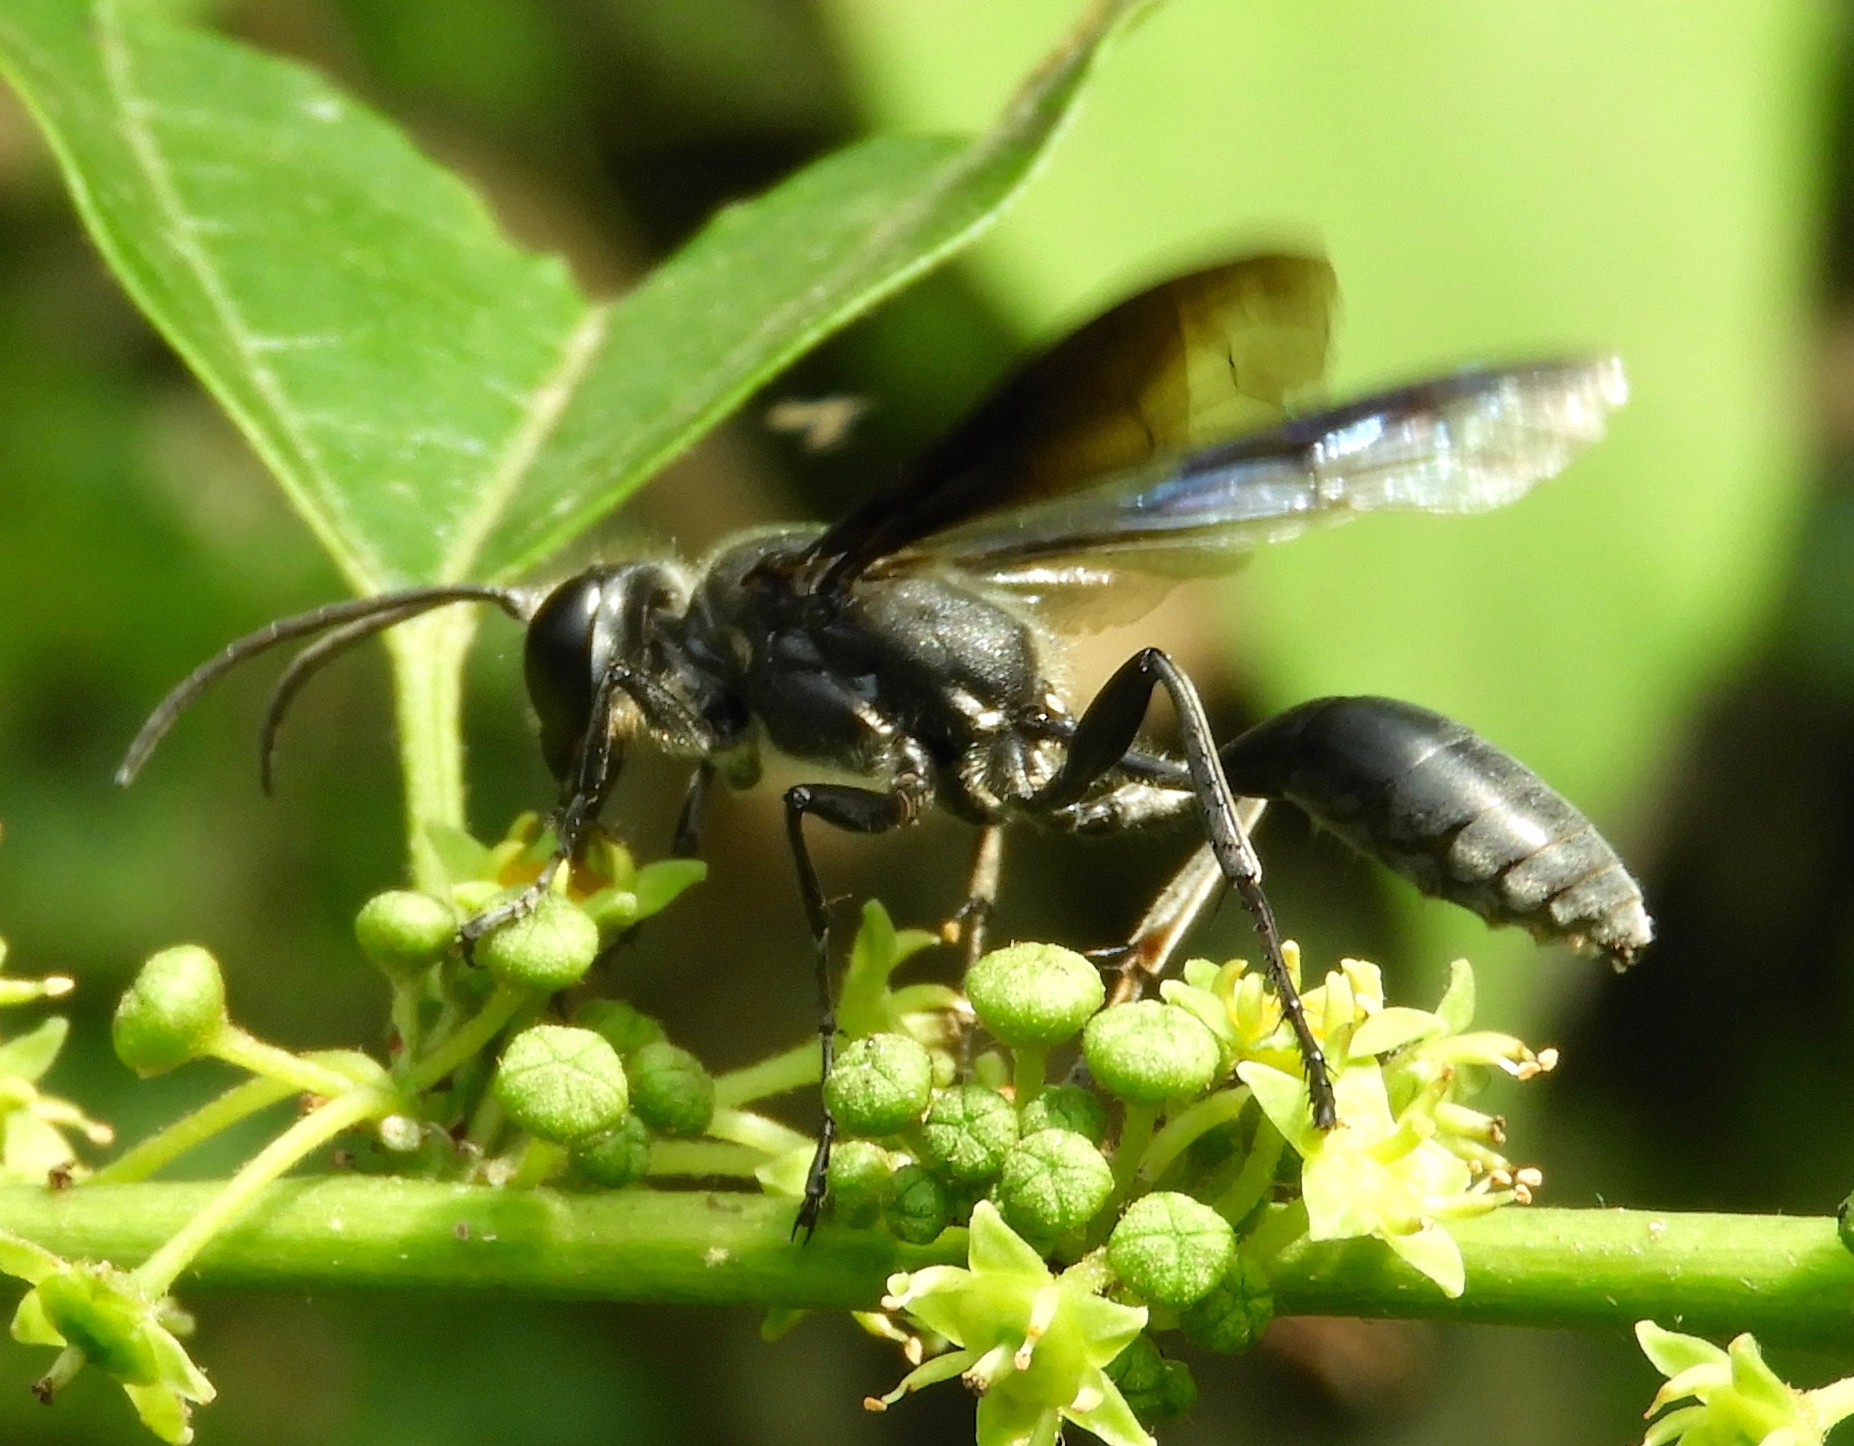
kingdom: Animalia
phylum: Arthropoda
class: Insecta
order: Hymenoptera
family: Sphecidae
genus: Isodontia
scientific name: Isodontia
